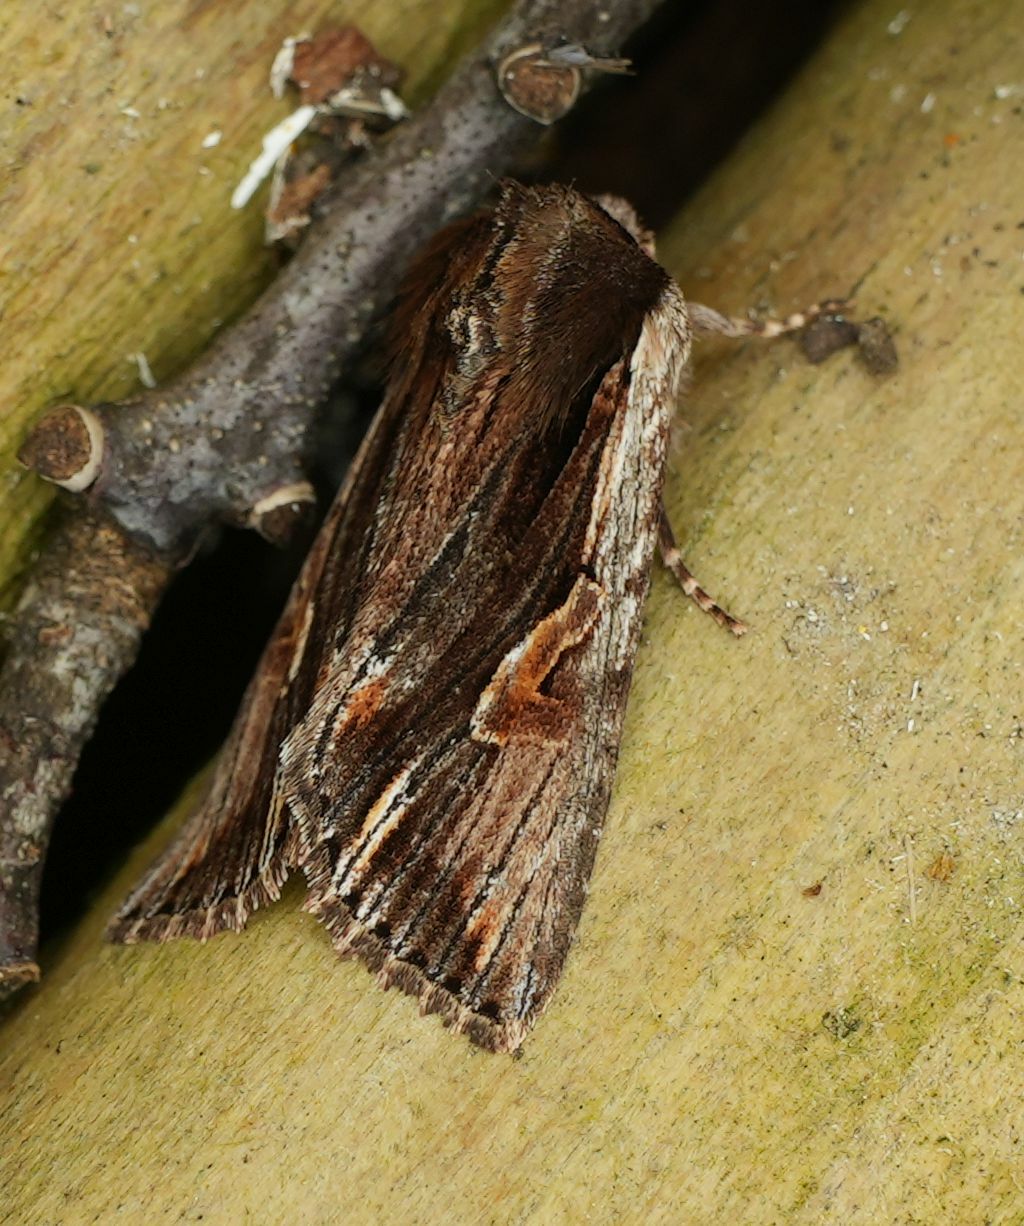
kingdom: Animalia
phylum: Arthropoda
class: Insecta
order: Lepidoptera
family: Noctuidae
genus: Achatia
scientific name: Achatia evicta
